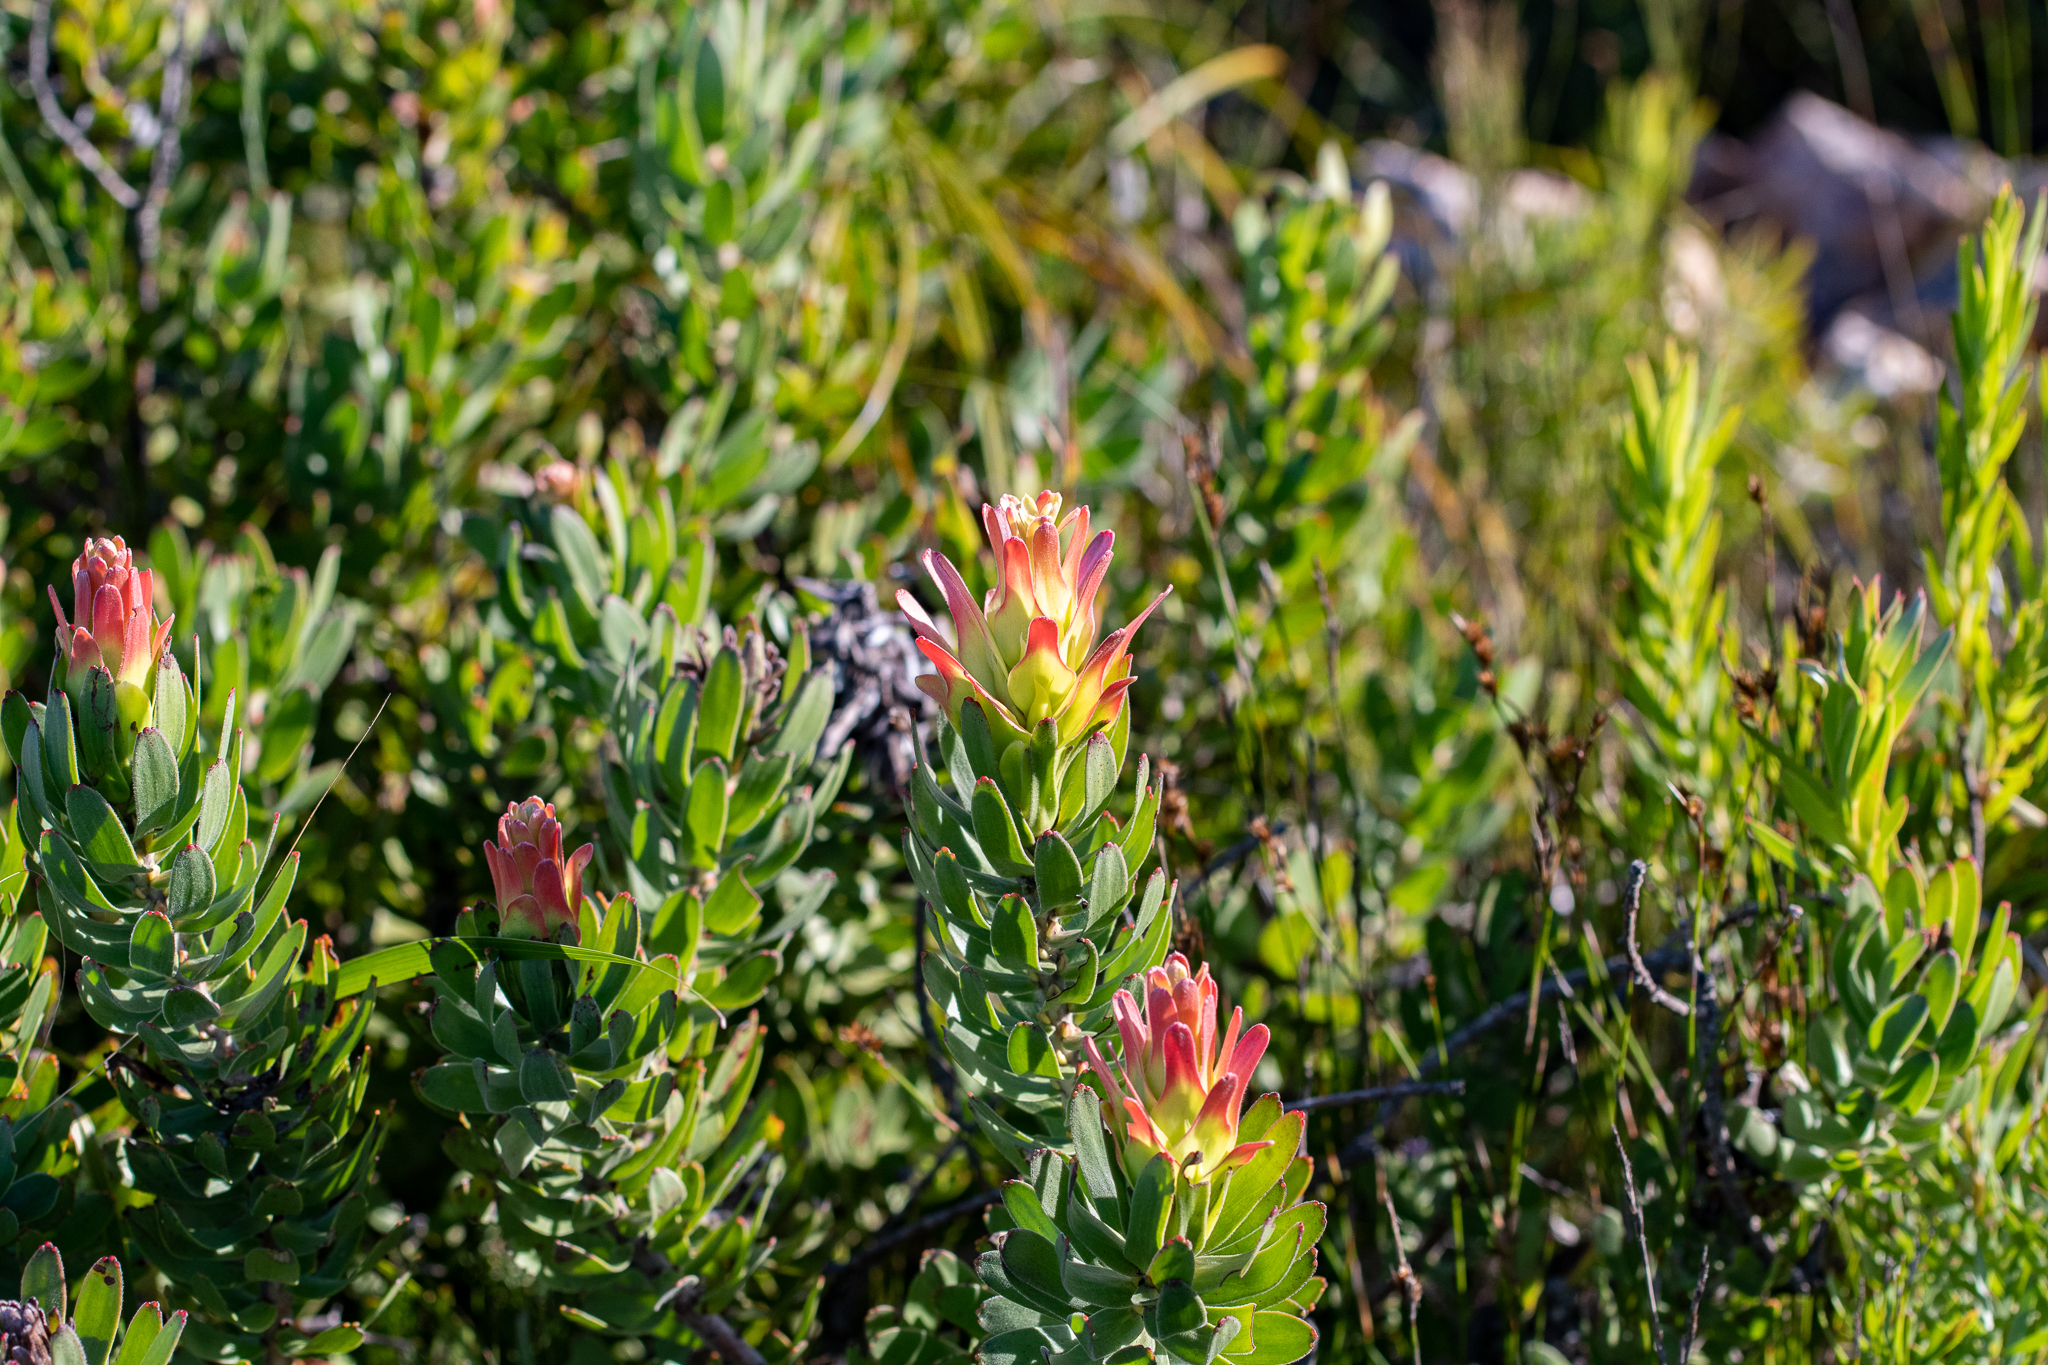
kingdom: Plantae
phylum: Tracheophyta
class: Magnoliopsida
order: Proteales
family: Proteaceae
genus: Mimetes
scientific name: Mimetes cucullatus
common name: Common pagoda
